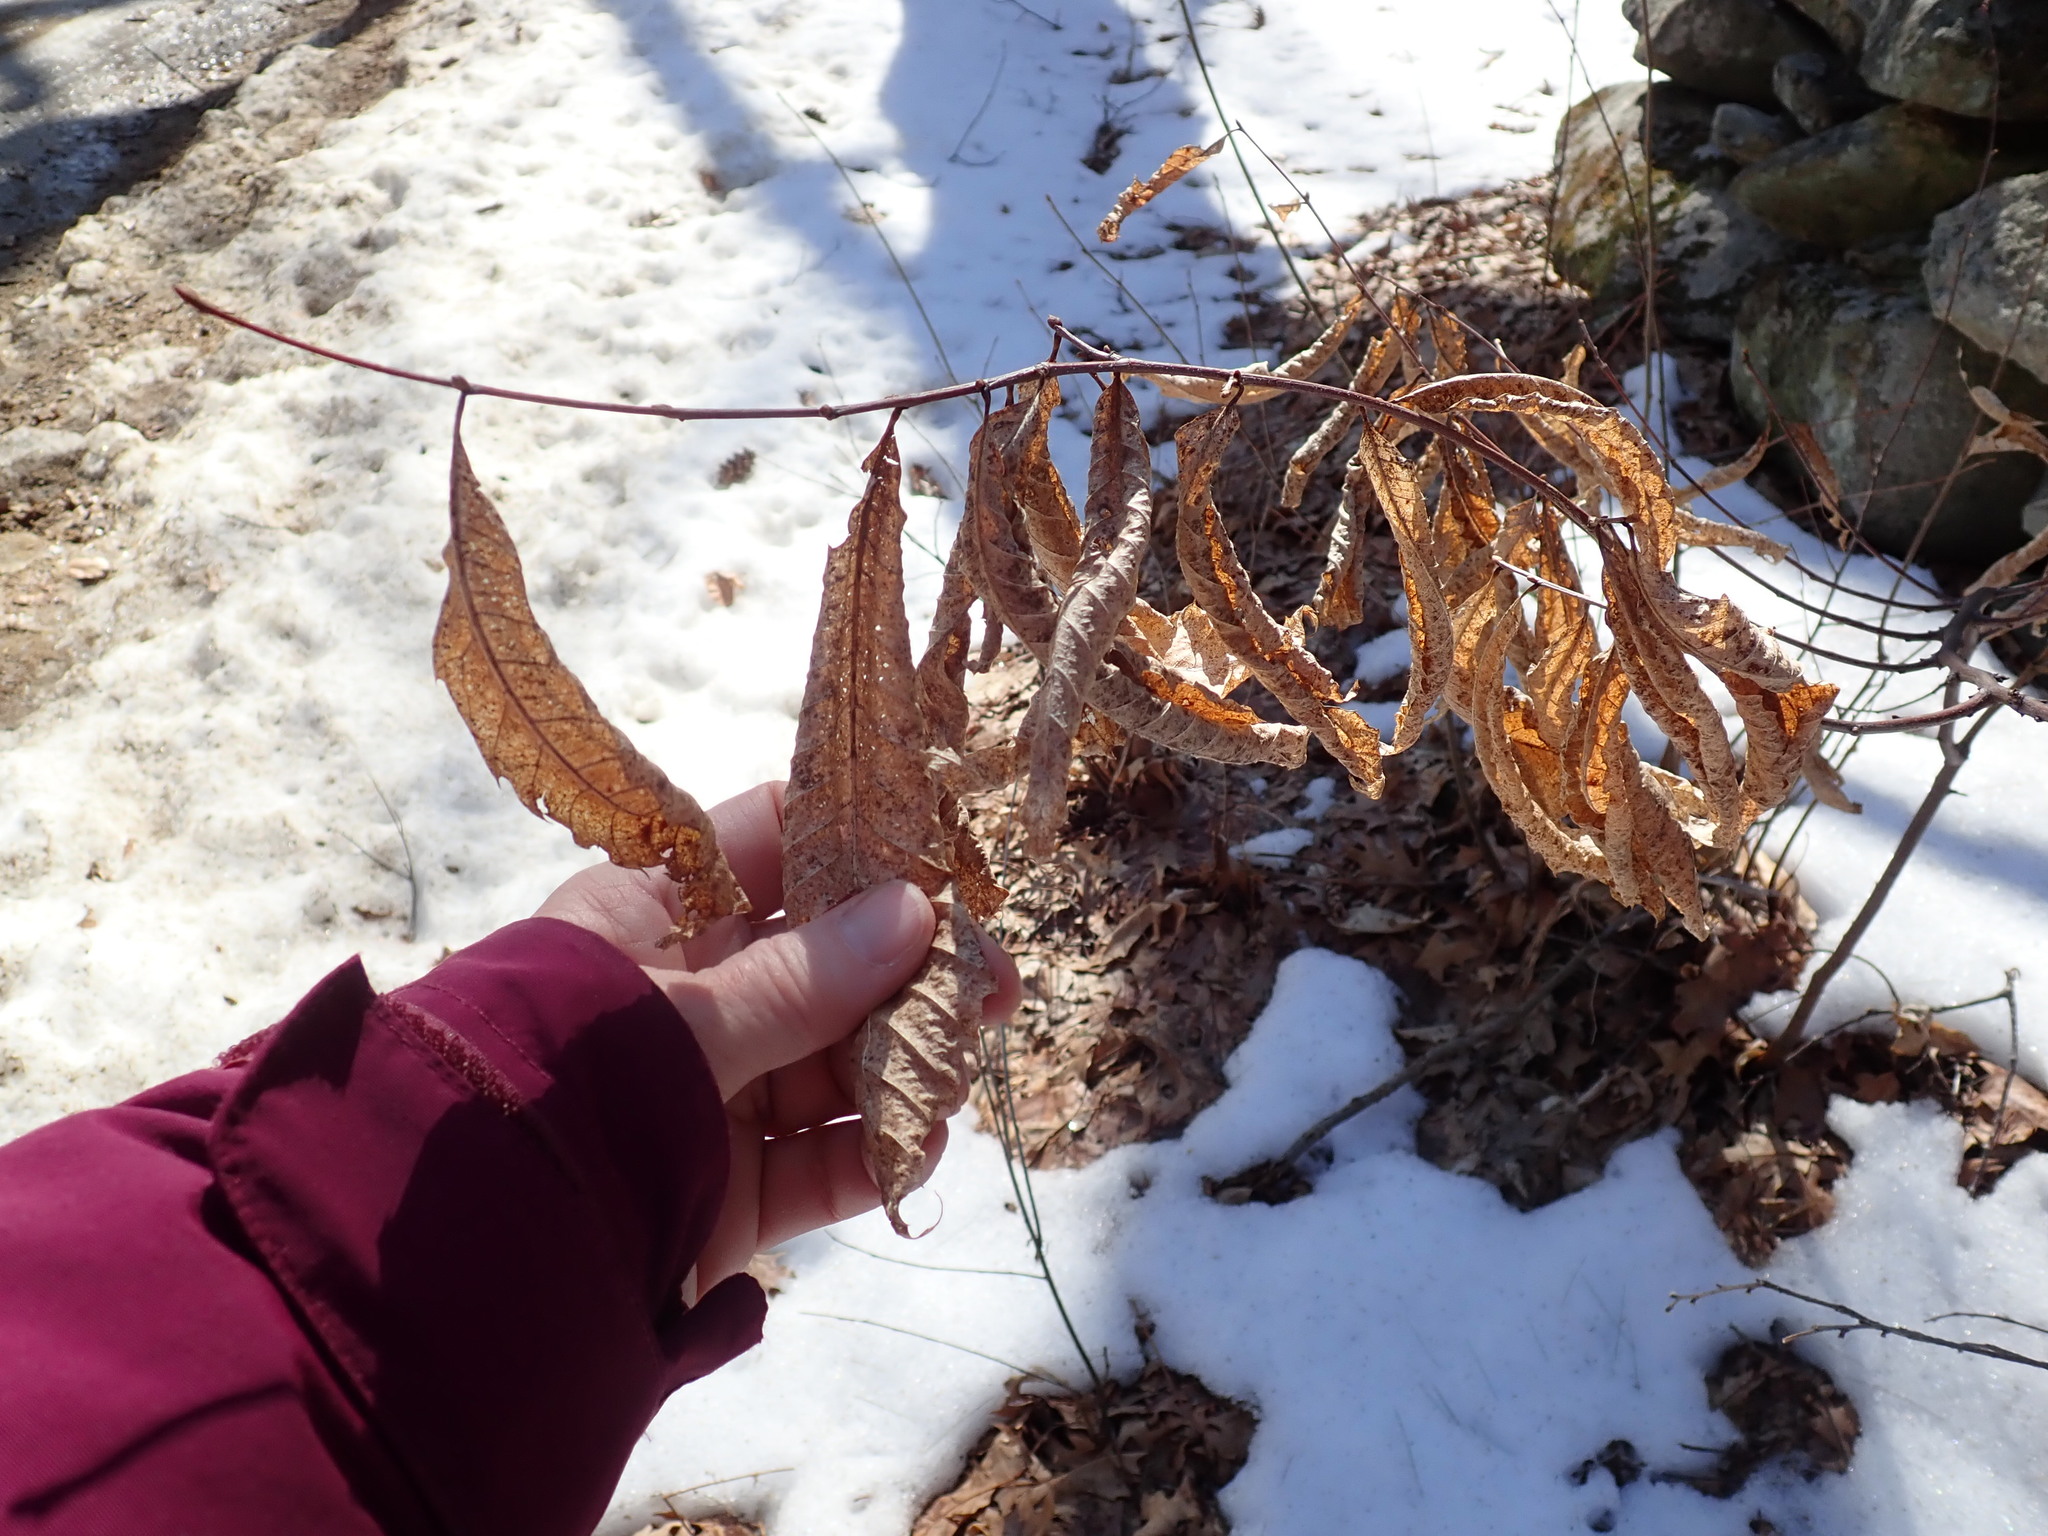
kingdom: Plantae
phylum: Tracheophyta
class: Magnoliopsida
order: Fagales
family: Fagaceae
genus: Castanea
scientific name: Castanea dentata
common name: American chestnut
